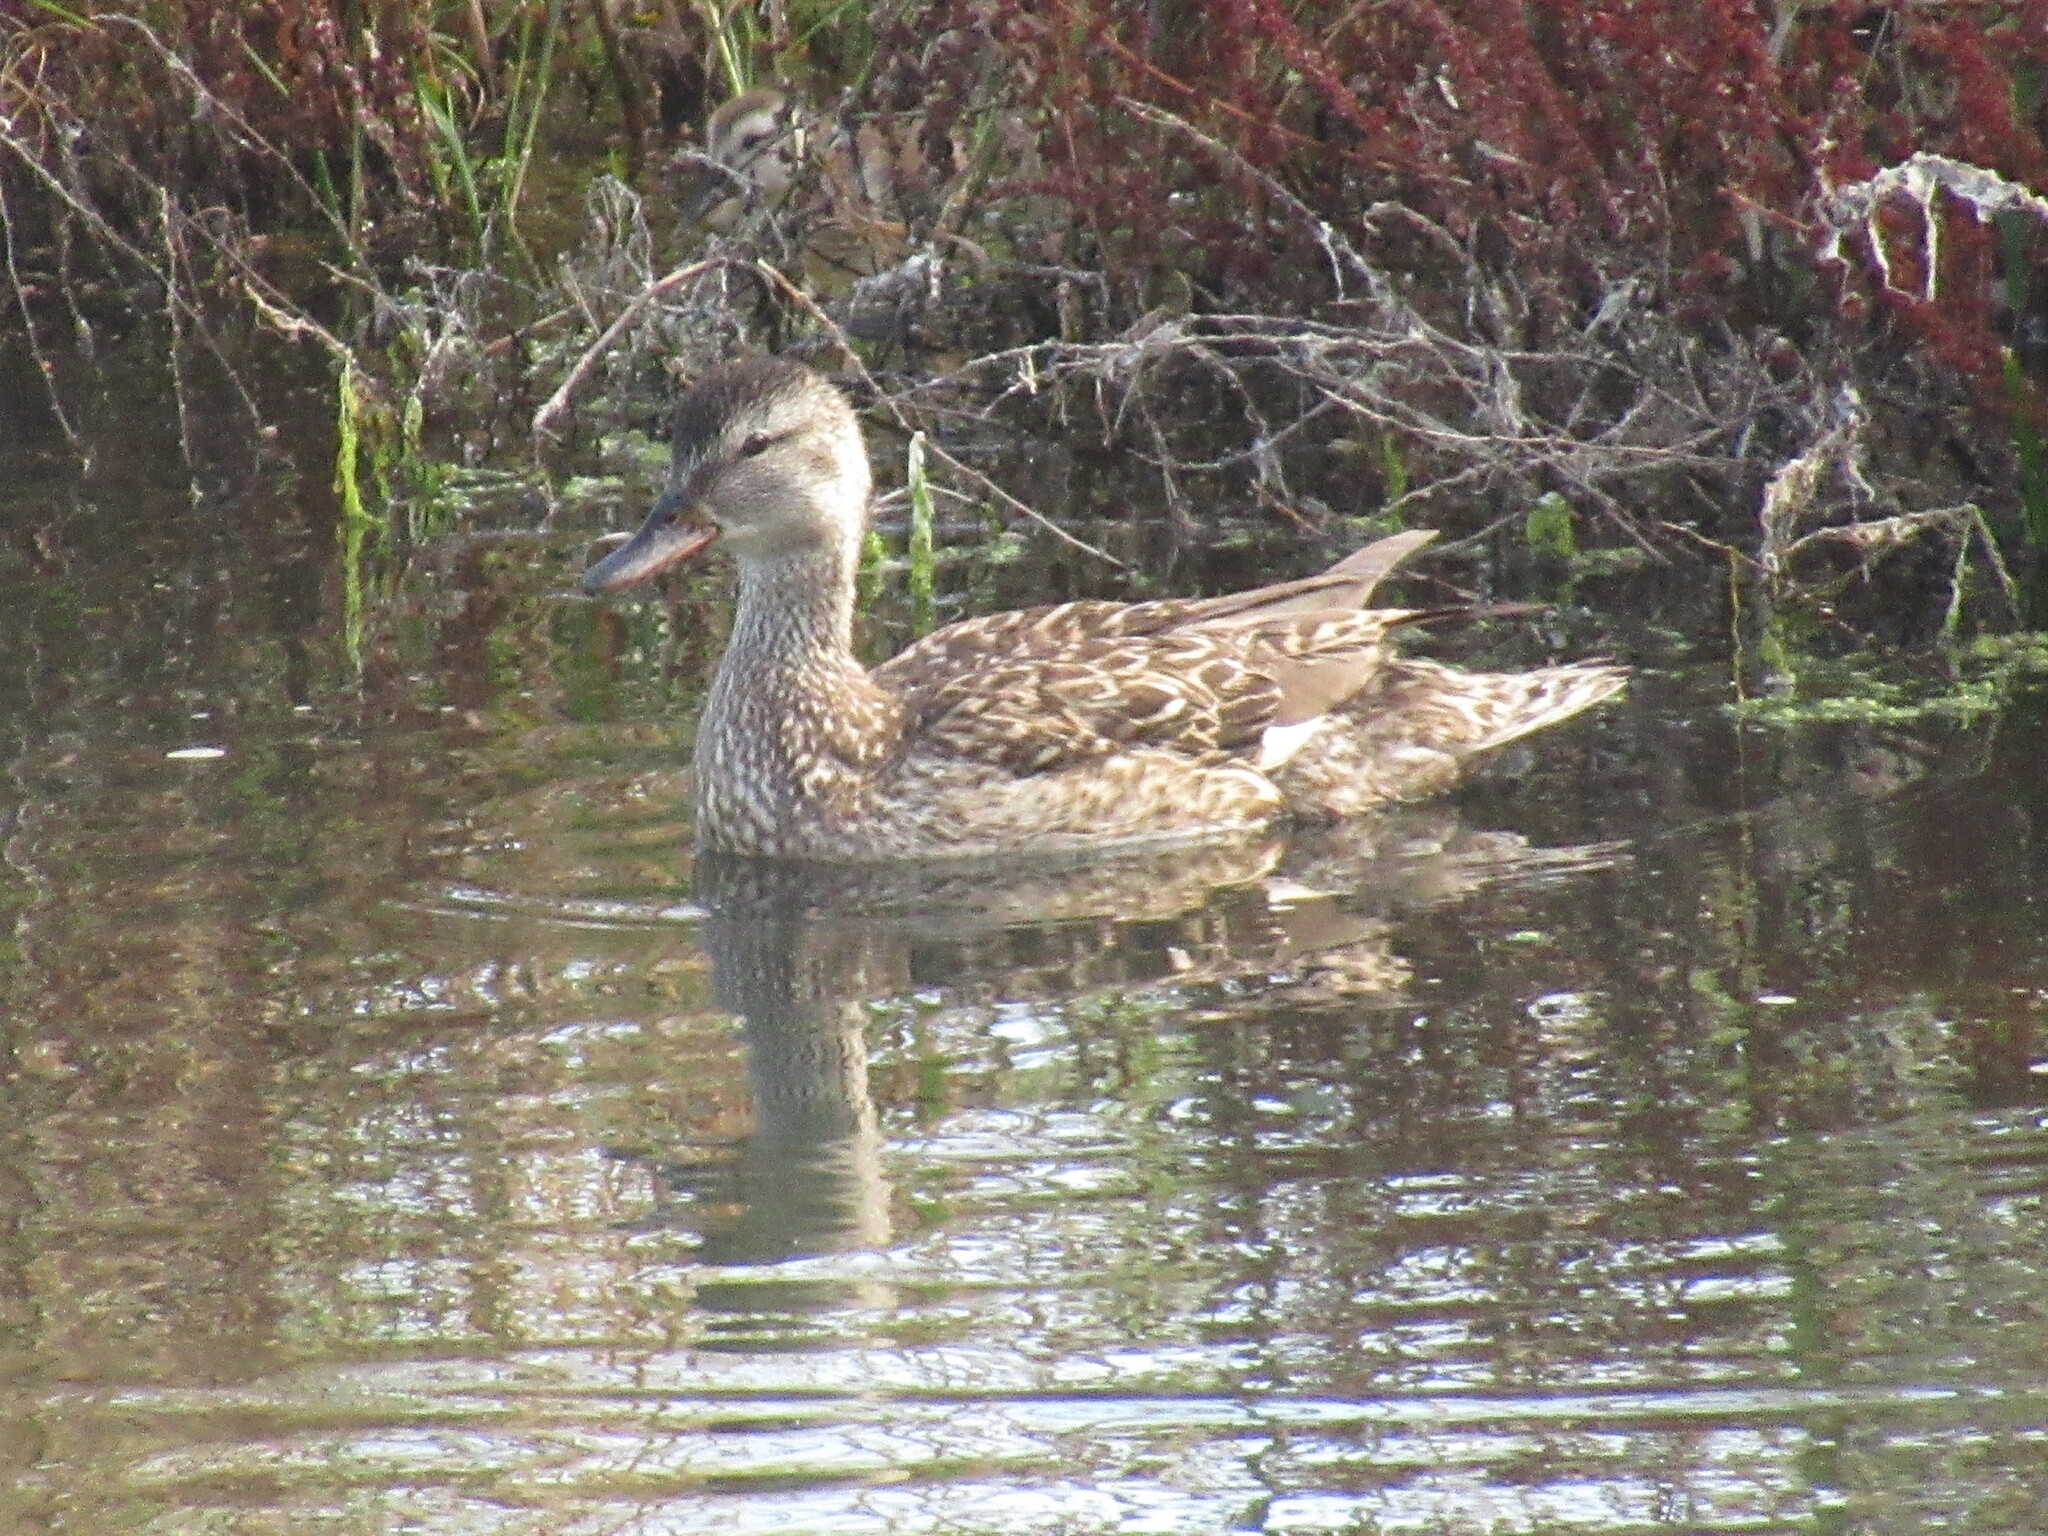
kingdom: Animalia
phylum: Chordata
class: Aves
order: Anseriformes
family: Anatidae
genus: Mareca
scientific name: Mareca strepera
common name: Gadwall
